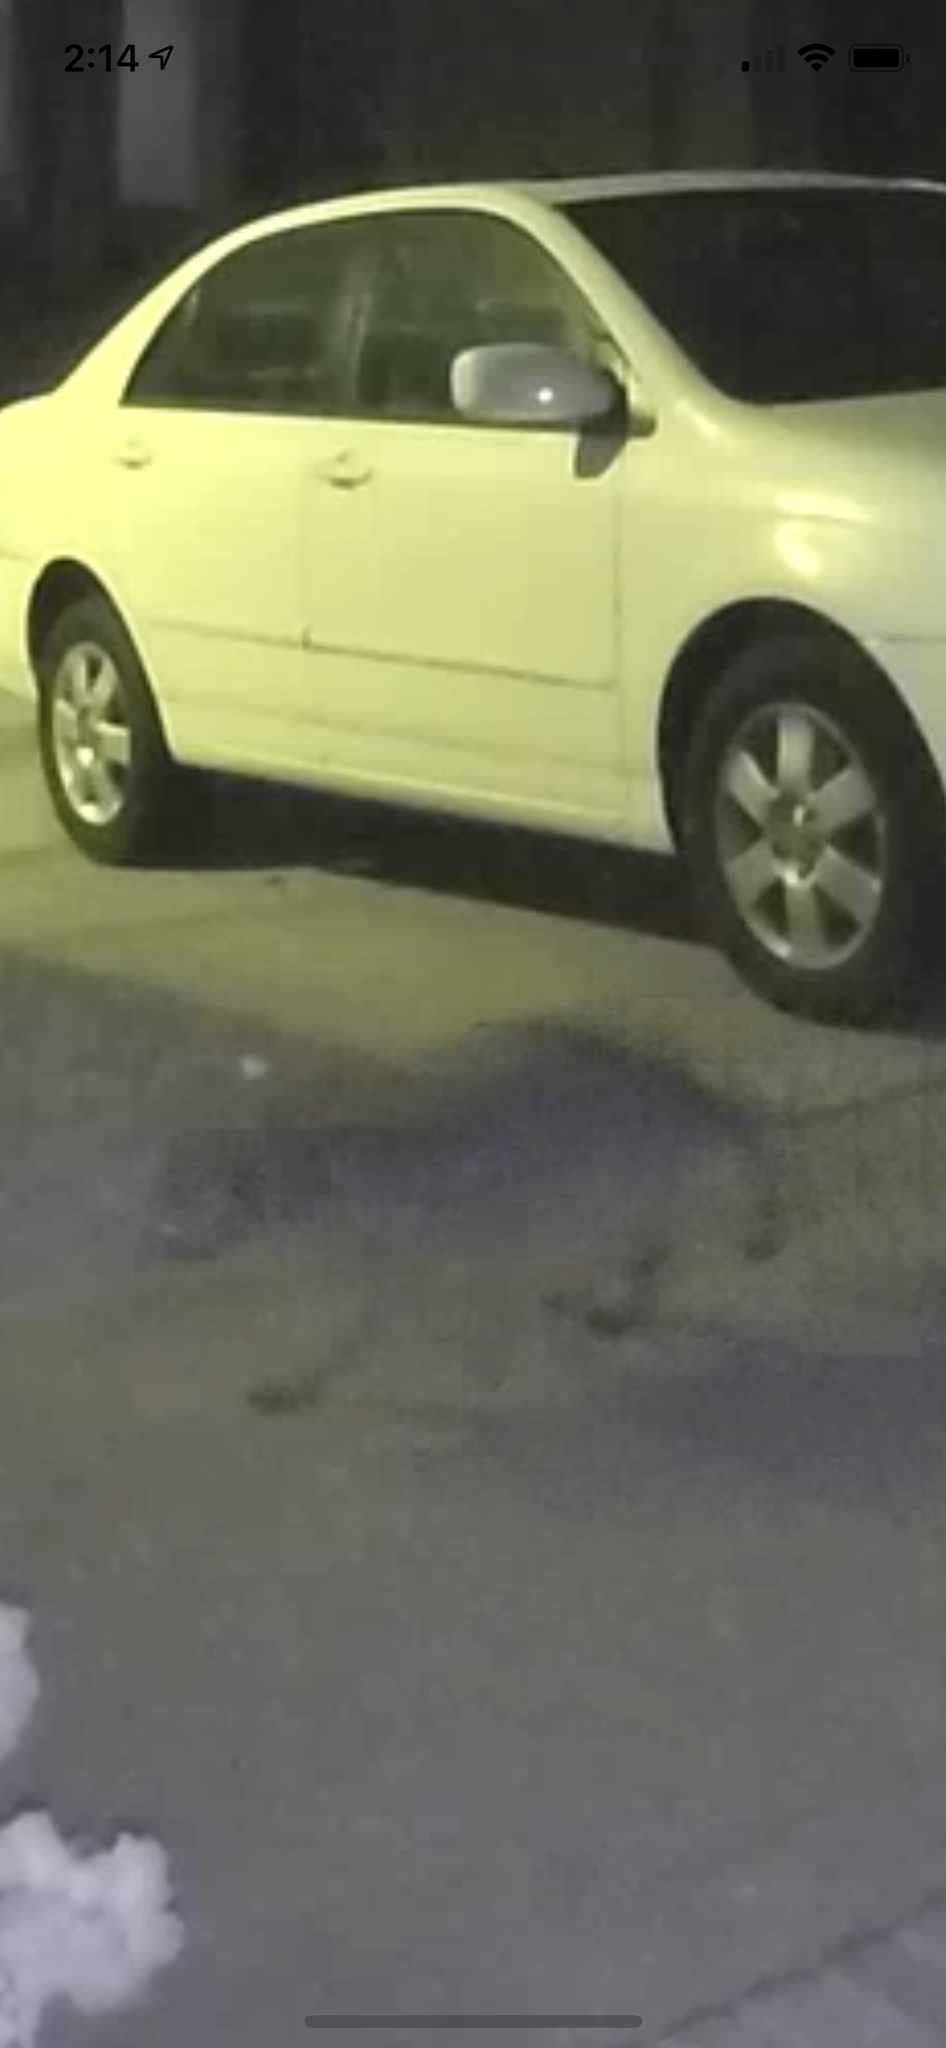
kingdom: Animalia
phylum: Chordata
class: Mammalia
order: Carnivora
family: Procyonidae
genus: Procyon
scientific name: Procyon lotor
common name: Raccoon
